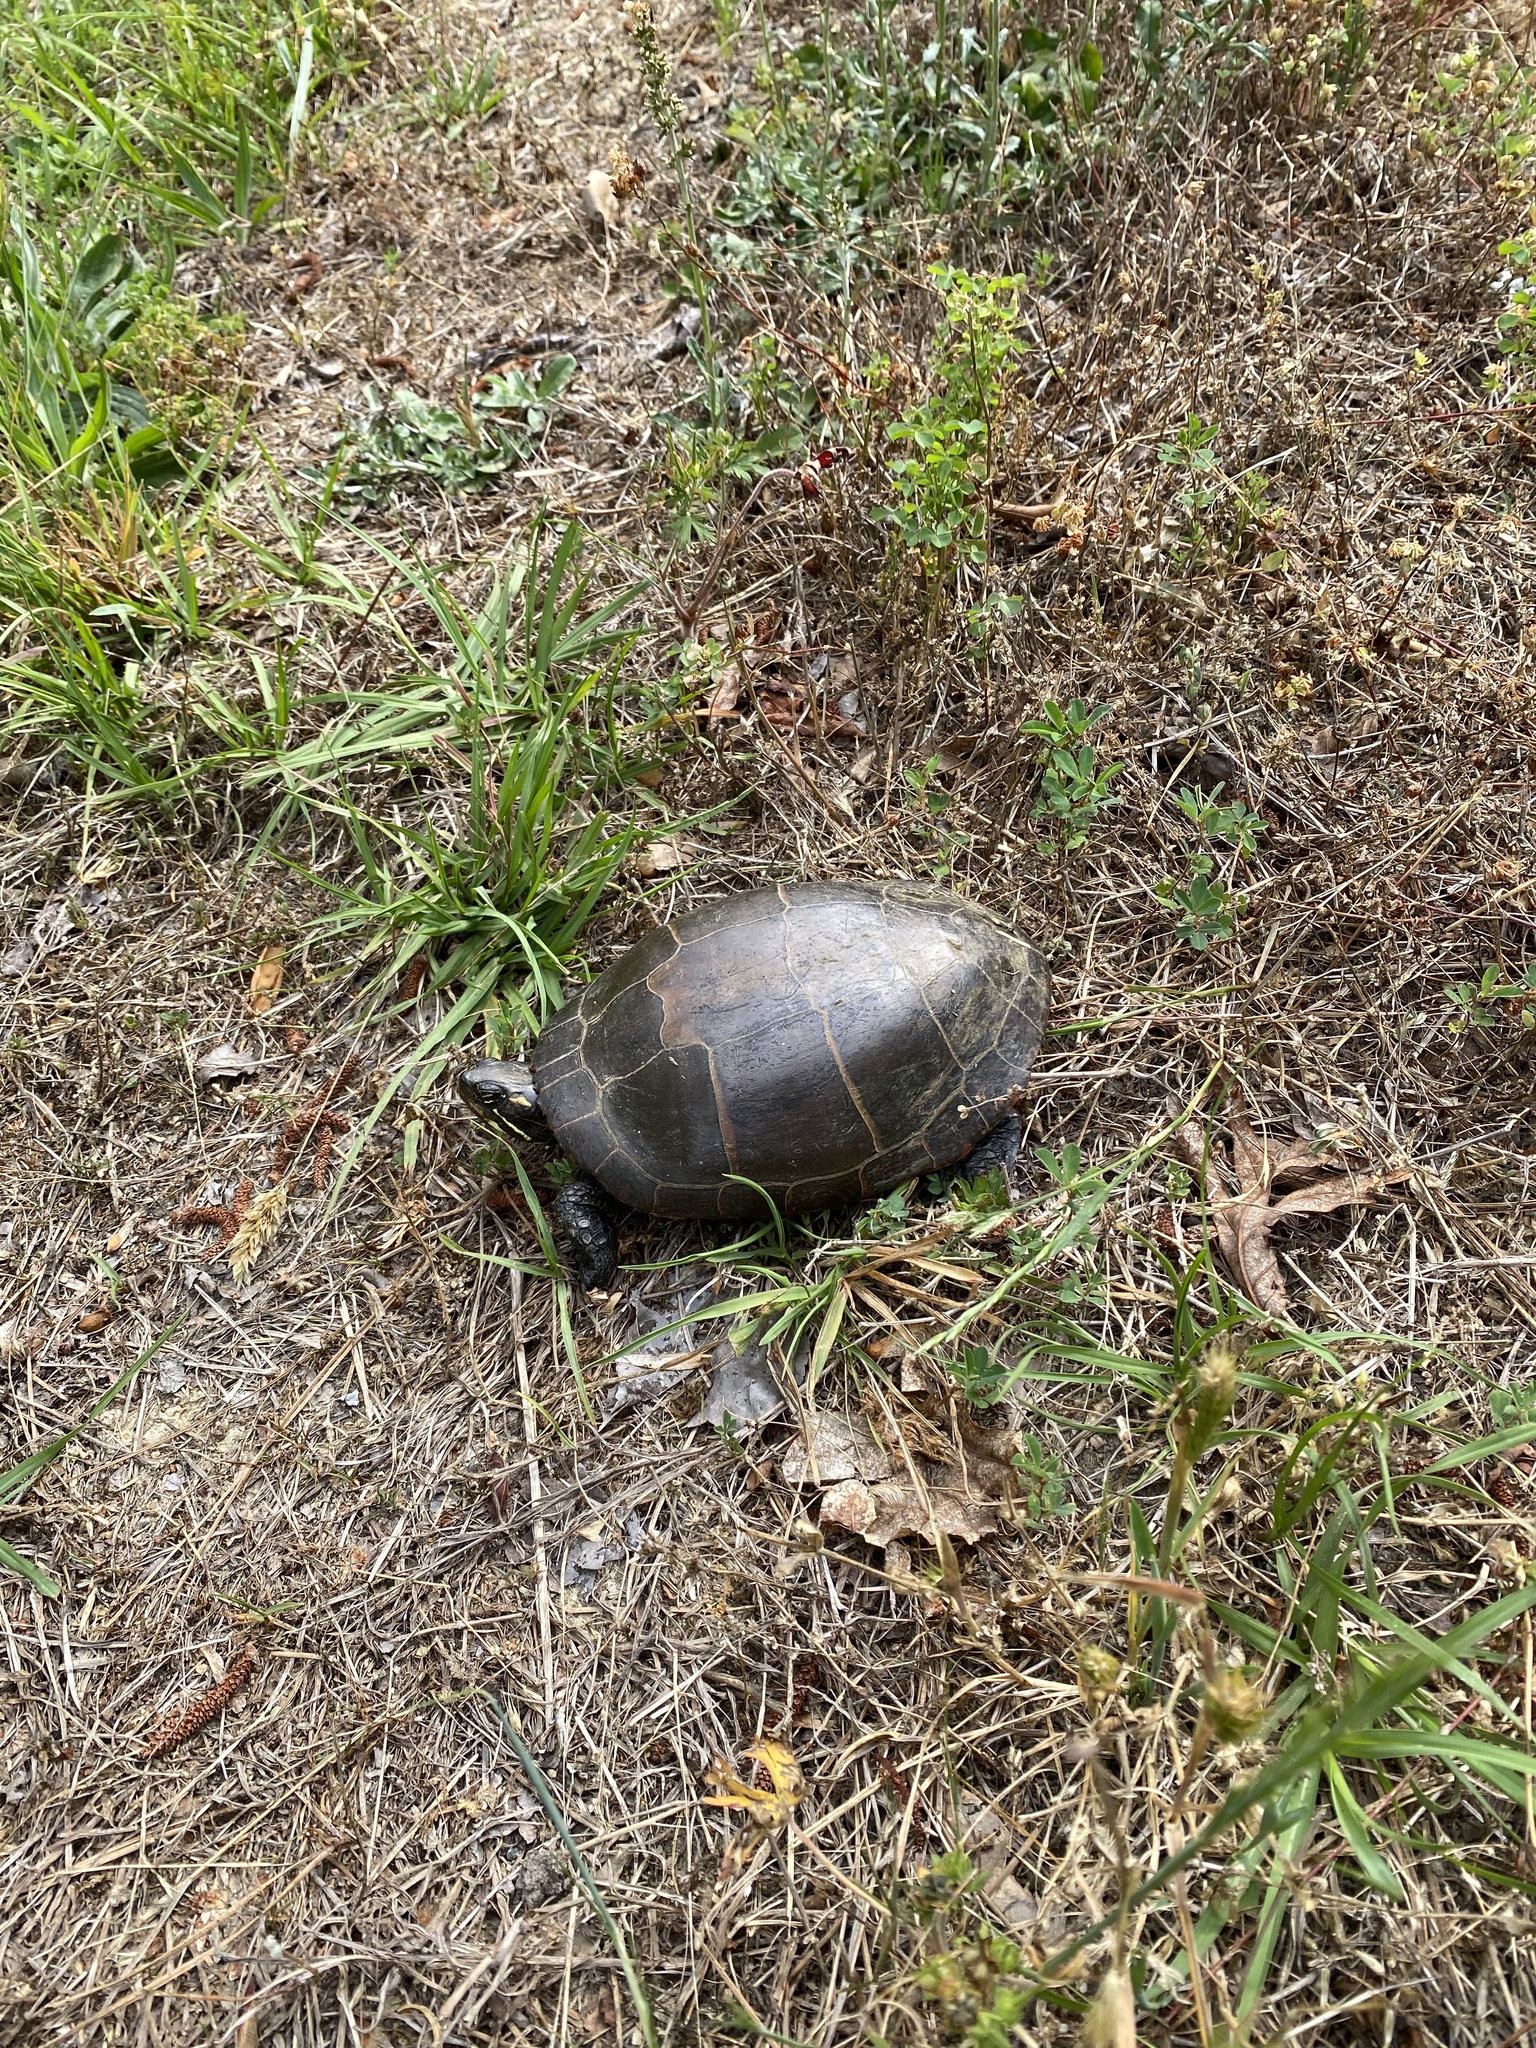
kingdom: Animalia
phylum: Chordata
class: Testudines
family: Emydidae
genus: Chrysemys
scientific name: Chrysemys picta
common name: Painted turtle
